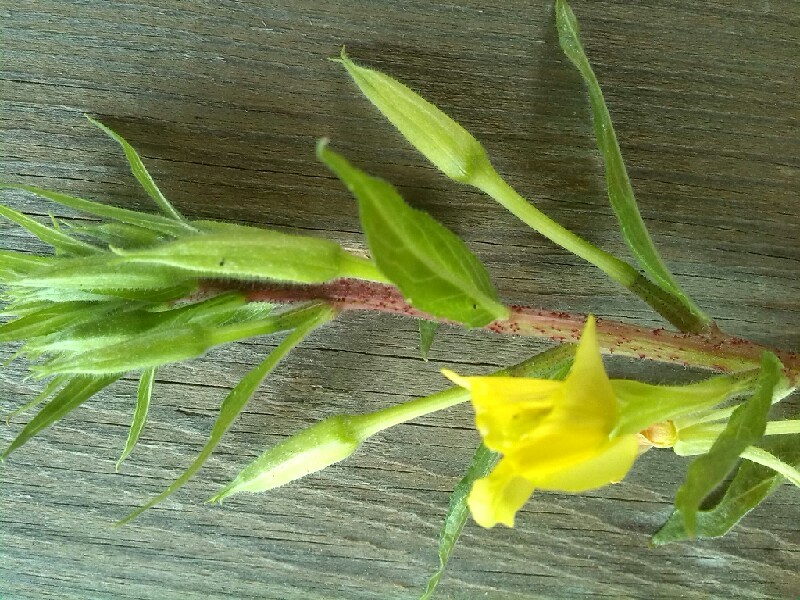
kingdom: Plantae
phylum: Tracheophyta
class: Magnoliopsida
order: Myrtales
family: Onagraceae
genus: Oenothera
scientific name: Oenothera rubricaulis
